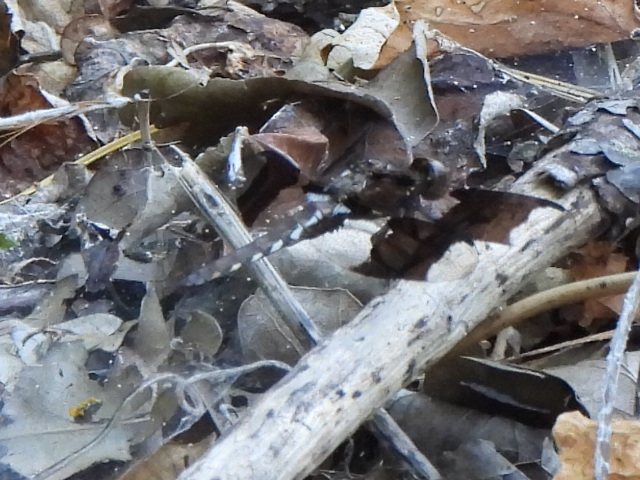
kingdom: Animalia
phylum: Arthropoda
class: Insecta
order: Odonata
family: Libellulidae
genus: Plathemis
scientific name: Plathemis lydia
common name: Common whitetail
